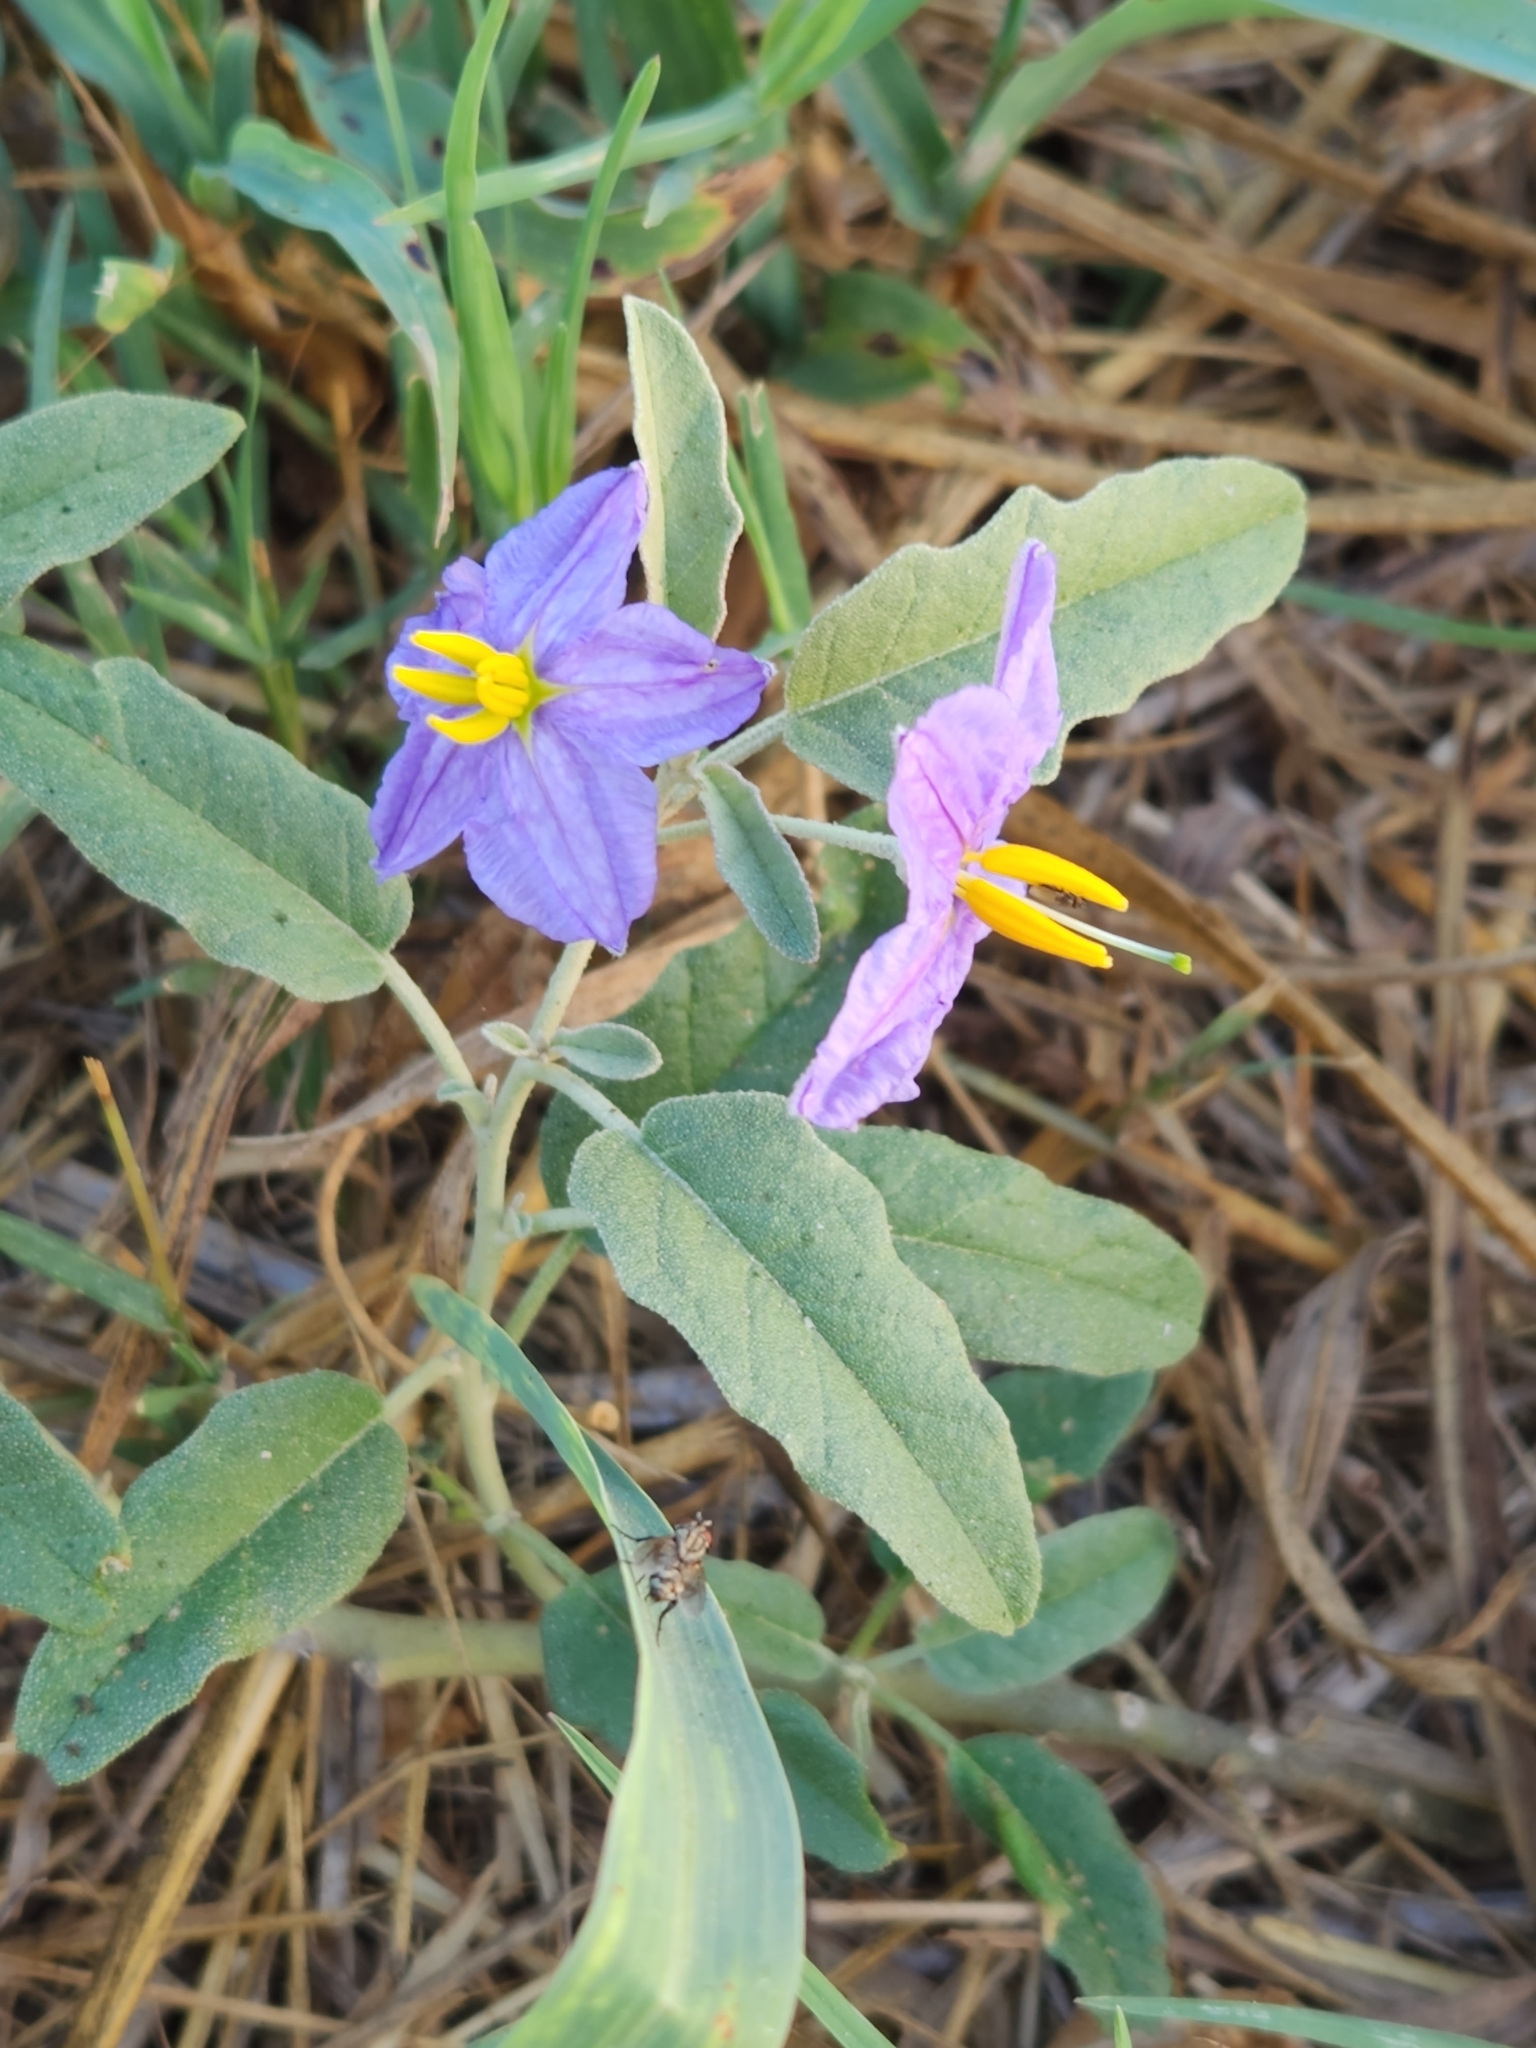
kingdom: Plantae
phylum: Tracheophyta
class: Magnoliopsida
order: Solanales
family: Solanaceae
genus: Solanum
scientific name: Solanum elaeagnifolium
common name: Silverleaf nightshade
